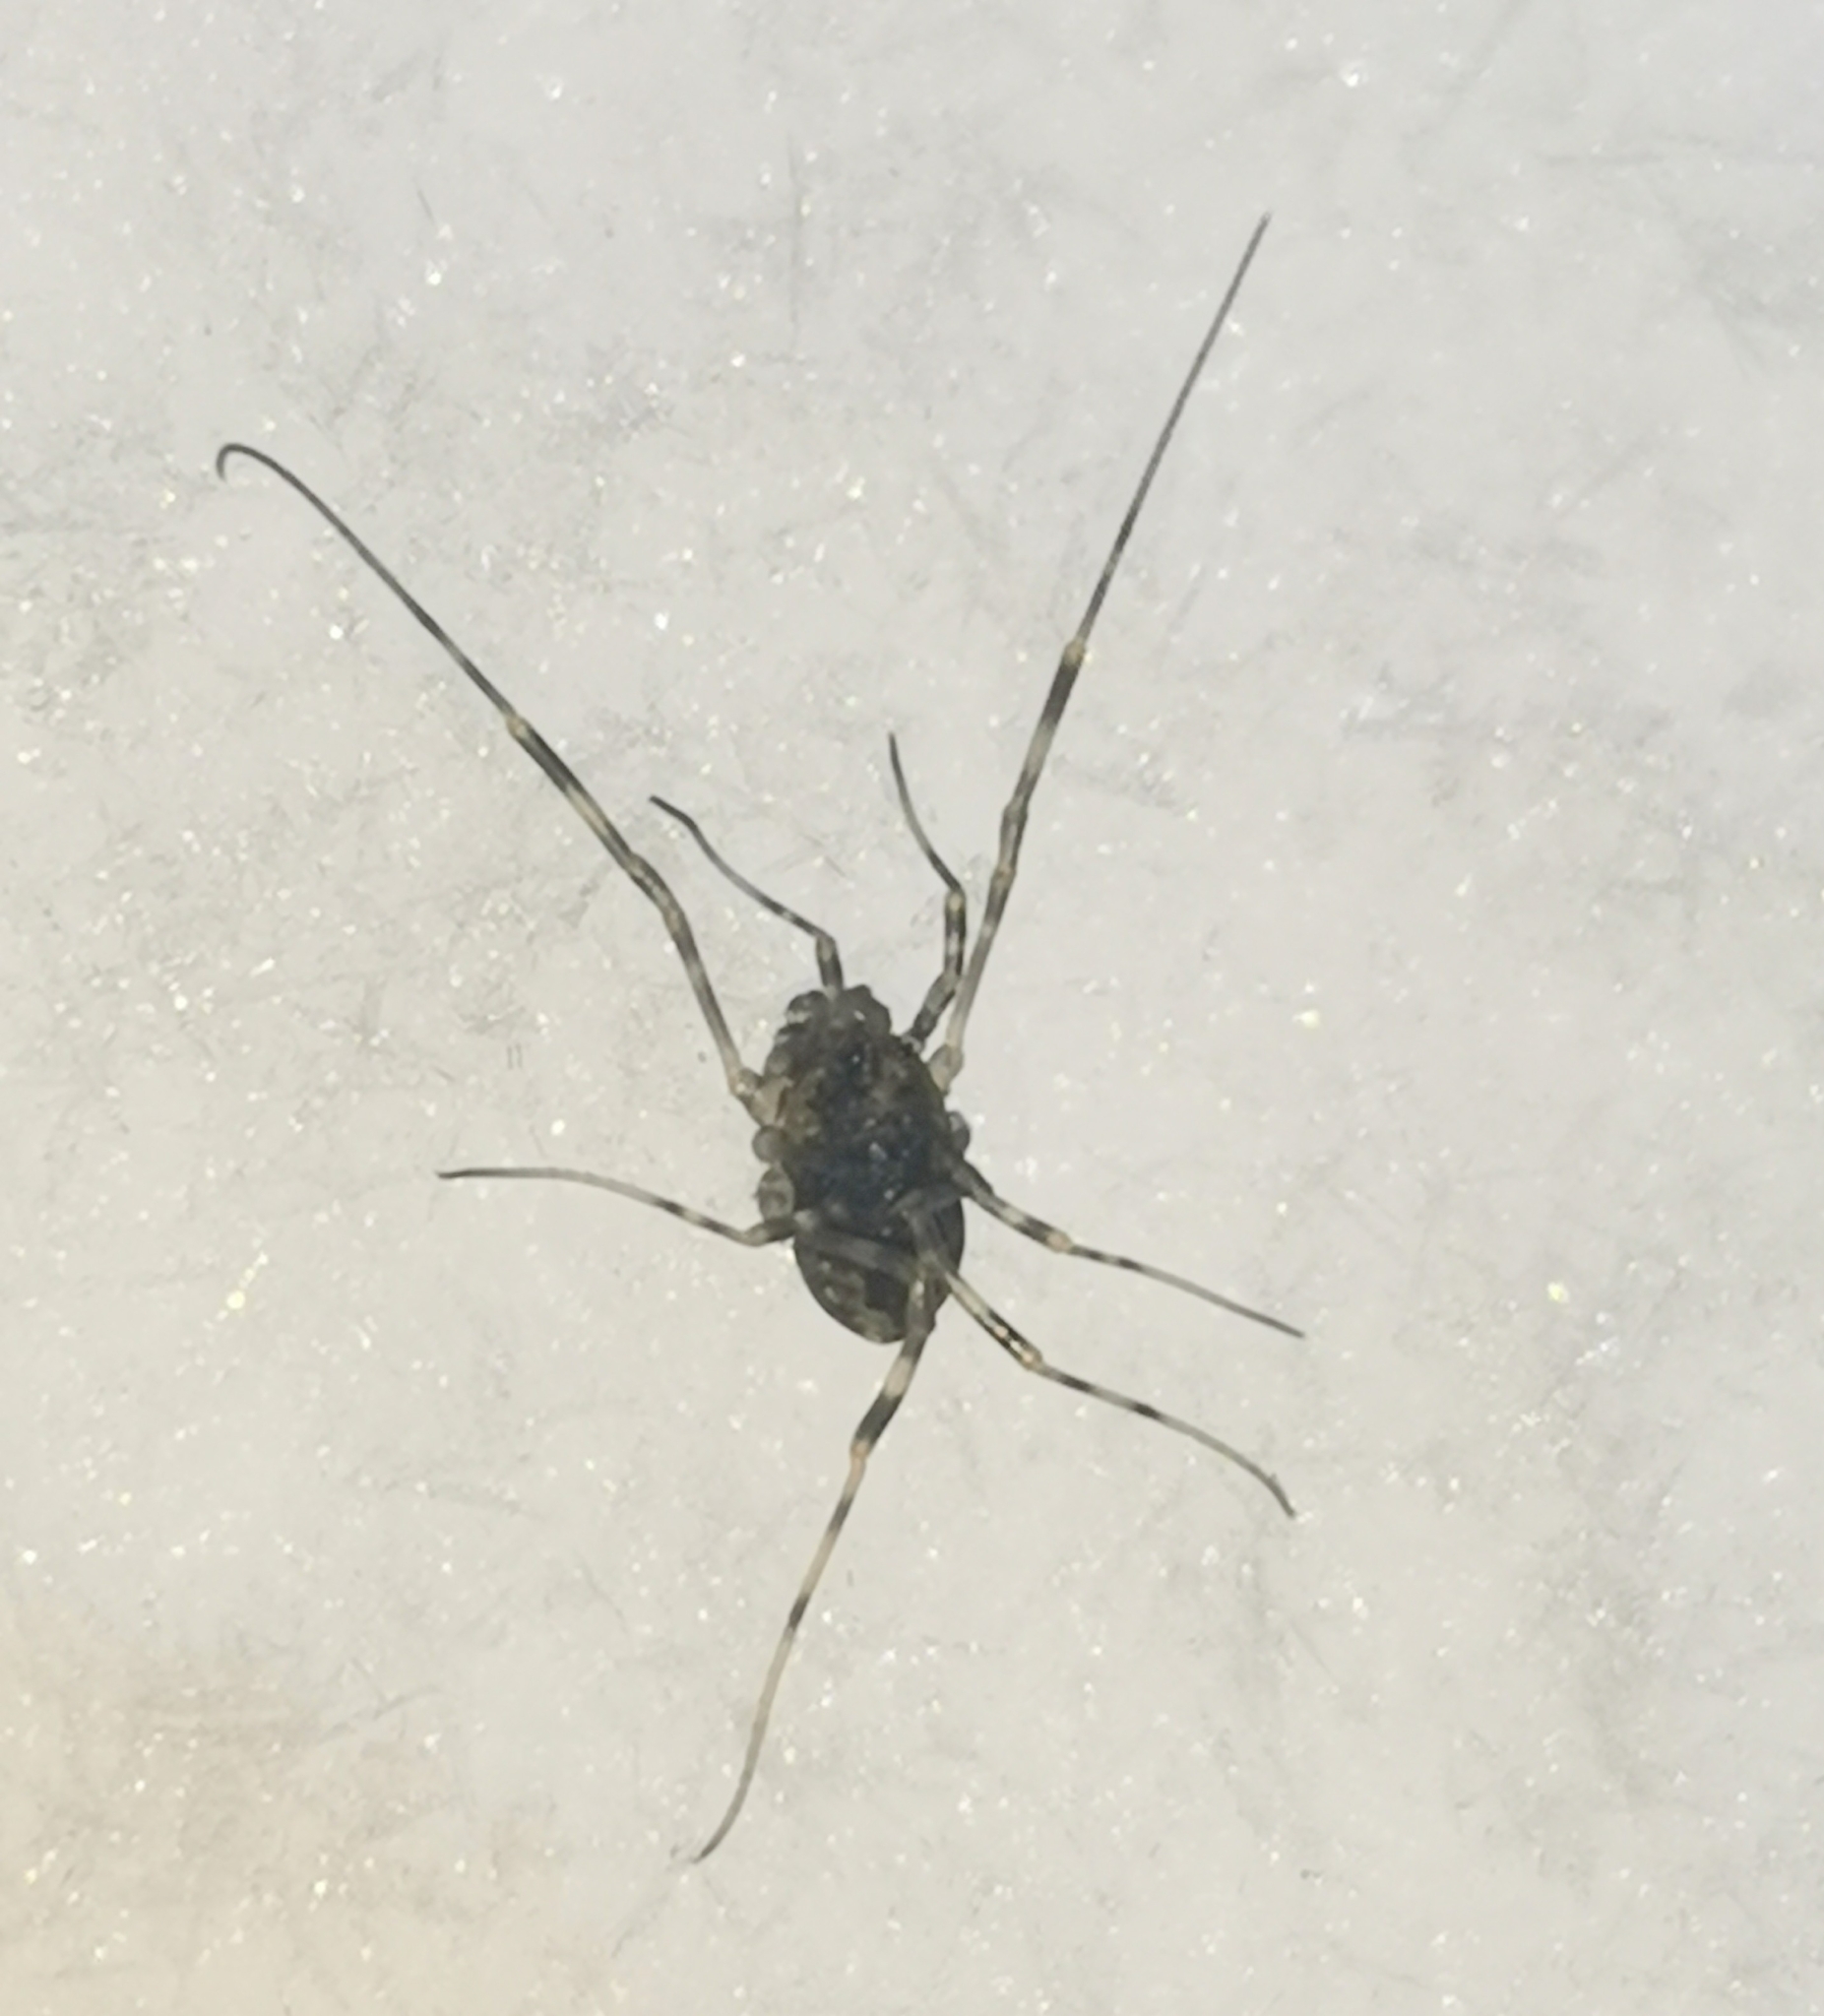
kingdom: Animalia
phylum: Arthropoda
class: Arachnida
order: Opiliones
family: Phalangiidae
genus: Rilaena
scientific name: Rilaena triangularis
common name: Spring harvestman
